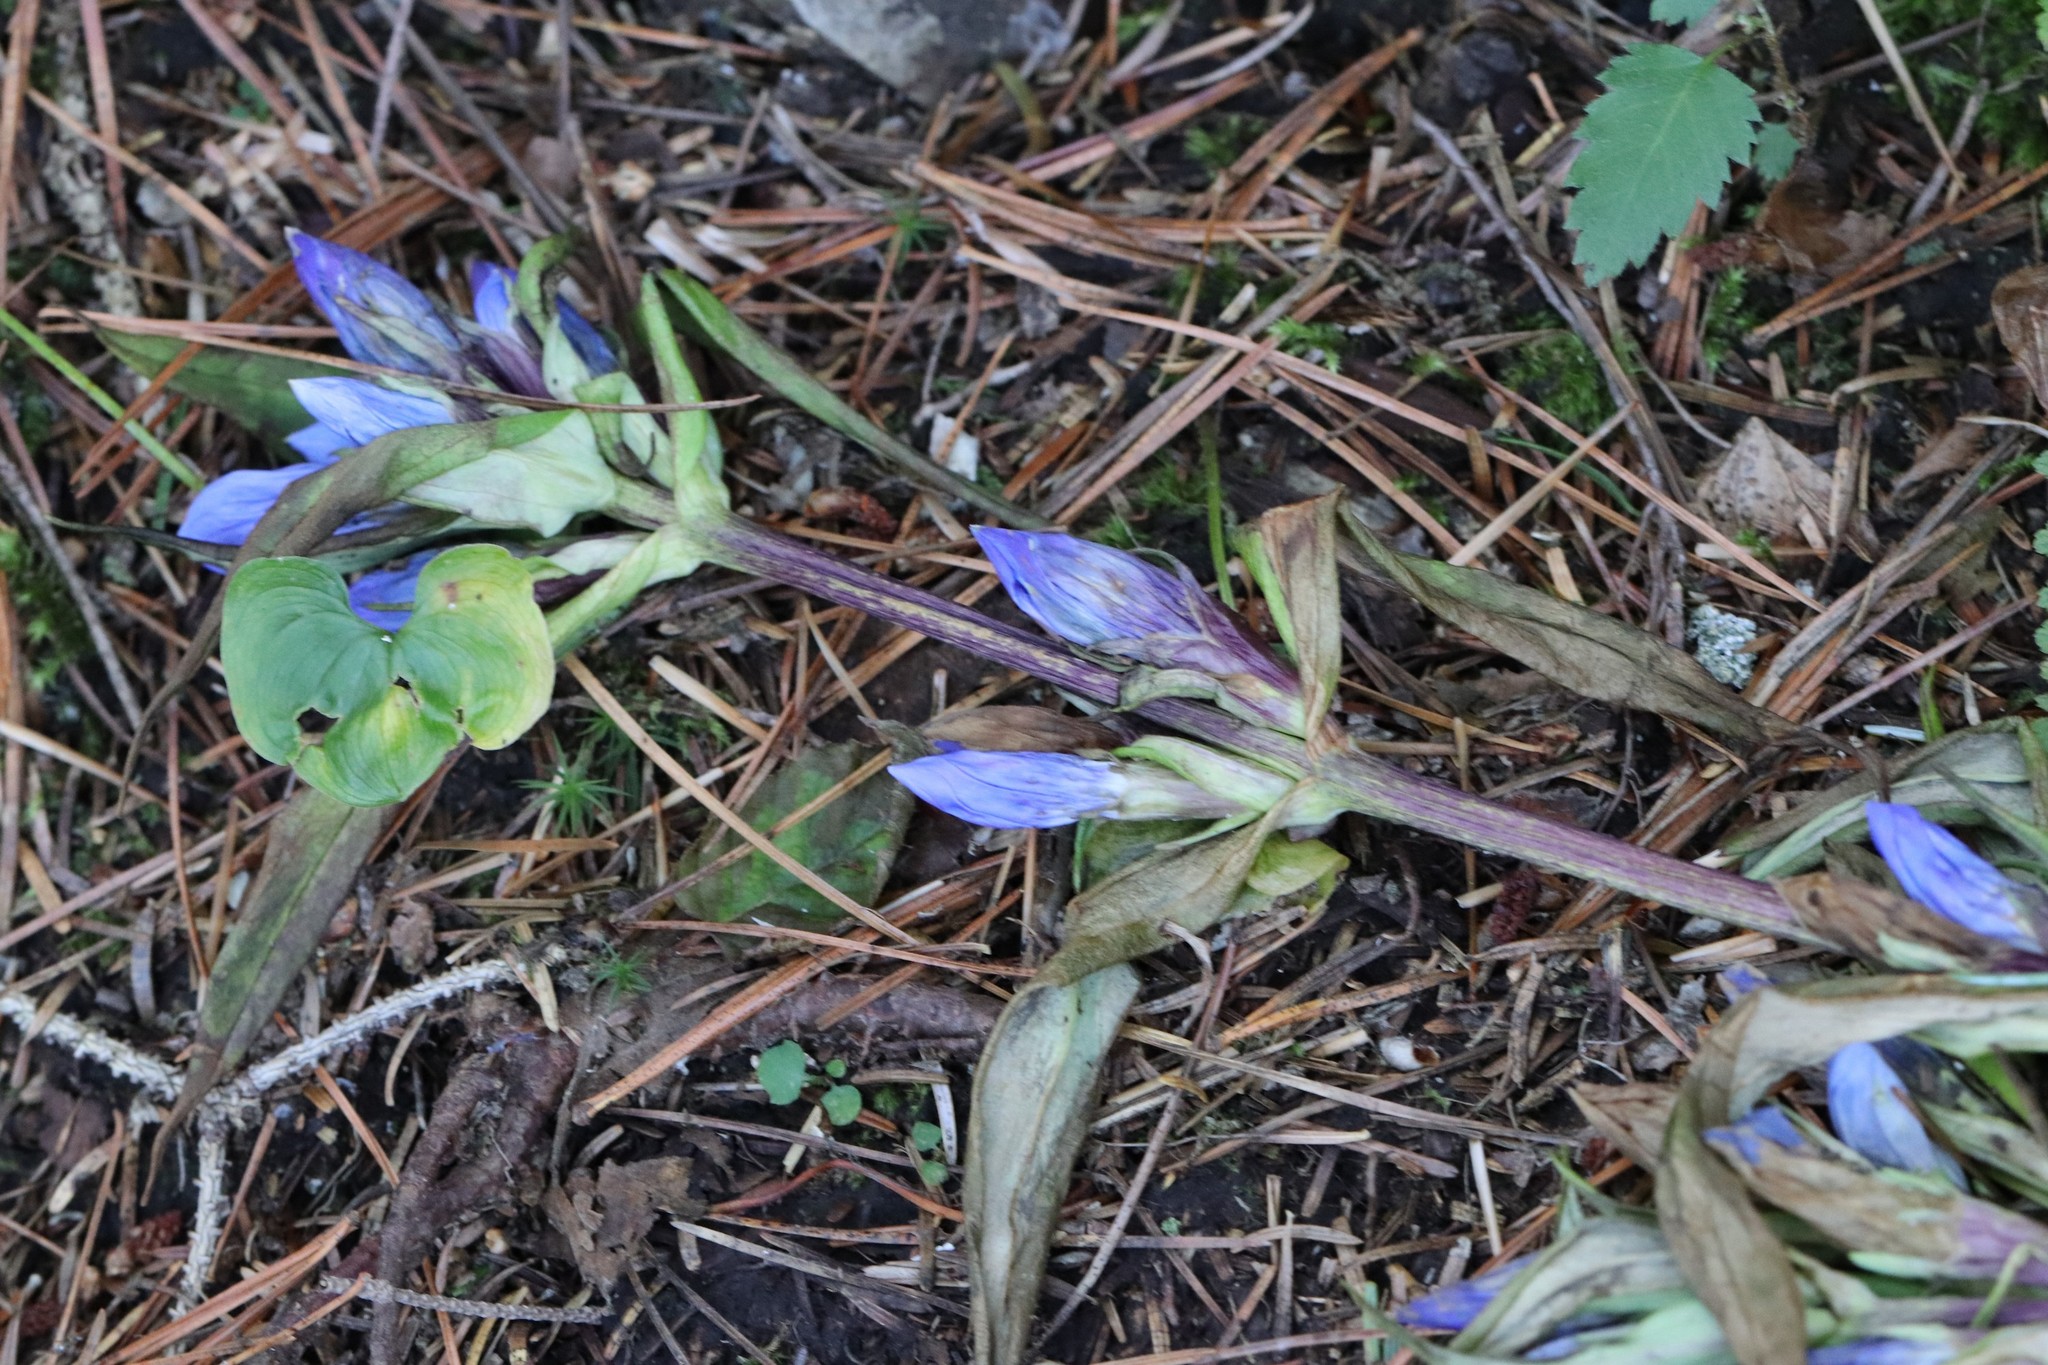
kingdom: Plantae
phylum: Tracheophyta
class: Magnoliopsida
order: Gentianales
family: Gentianaceae
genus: Gentiana
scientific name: Gentiana triflora
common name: Three-flower gentian
